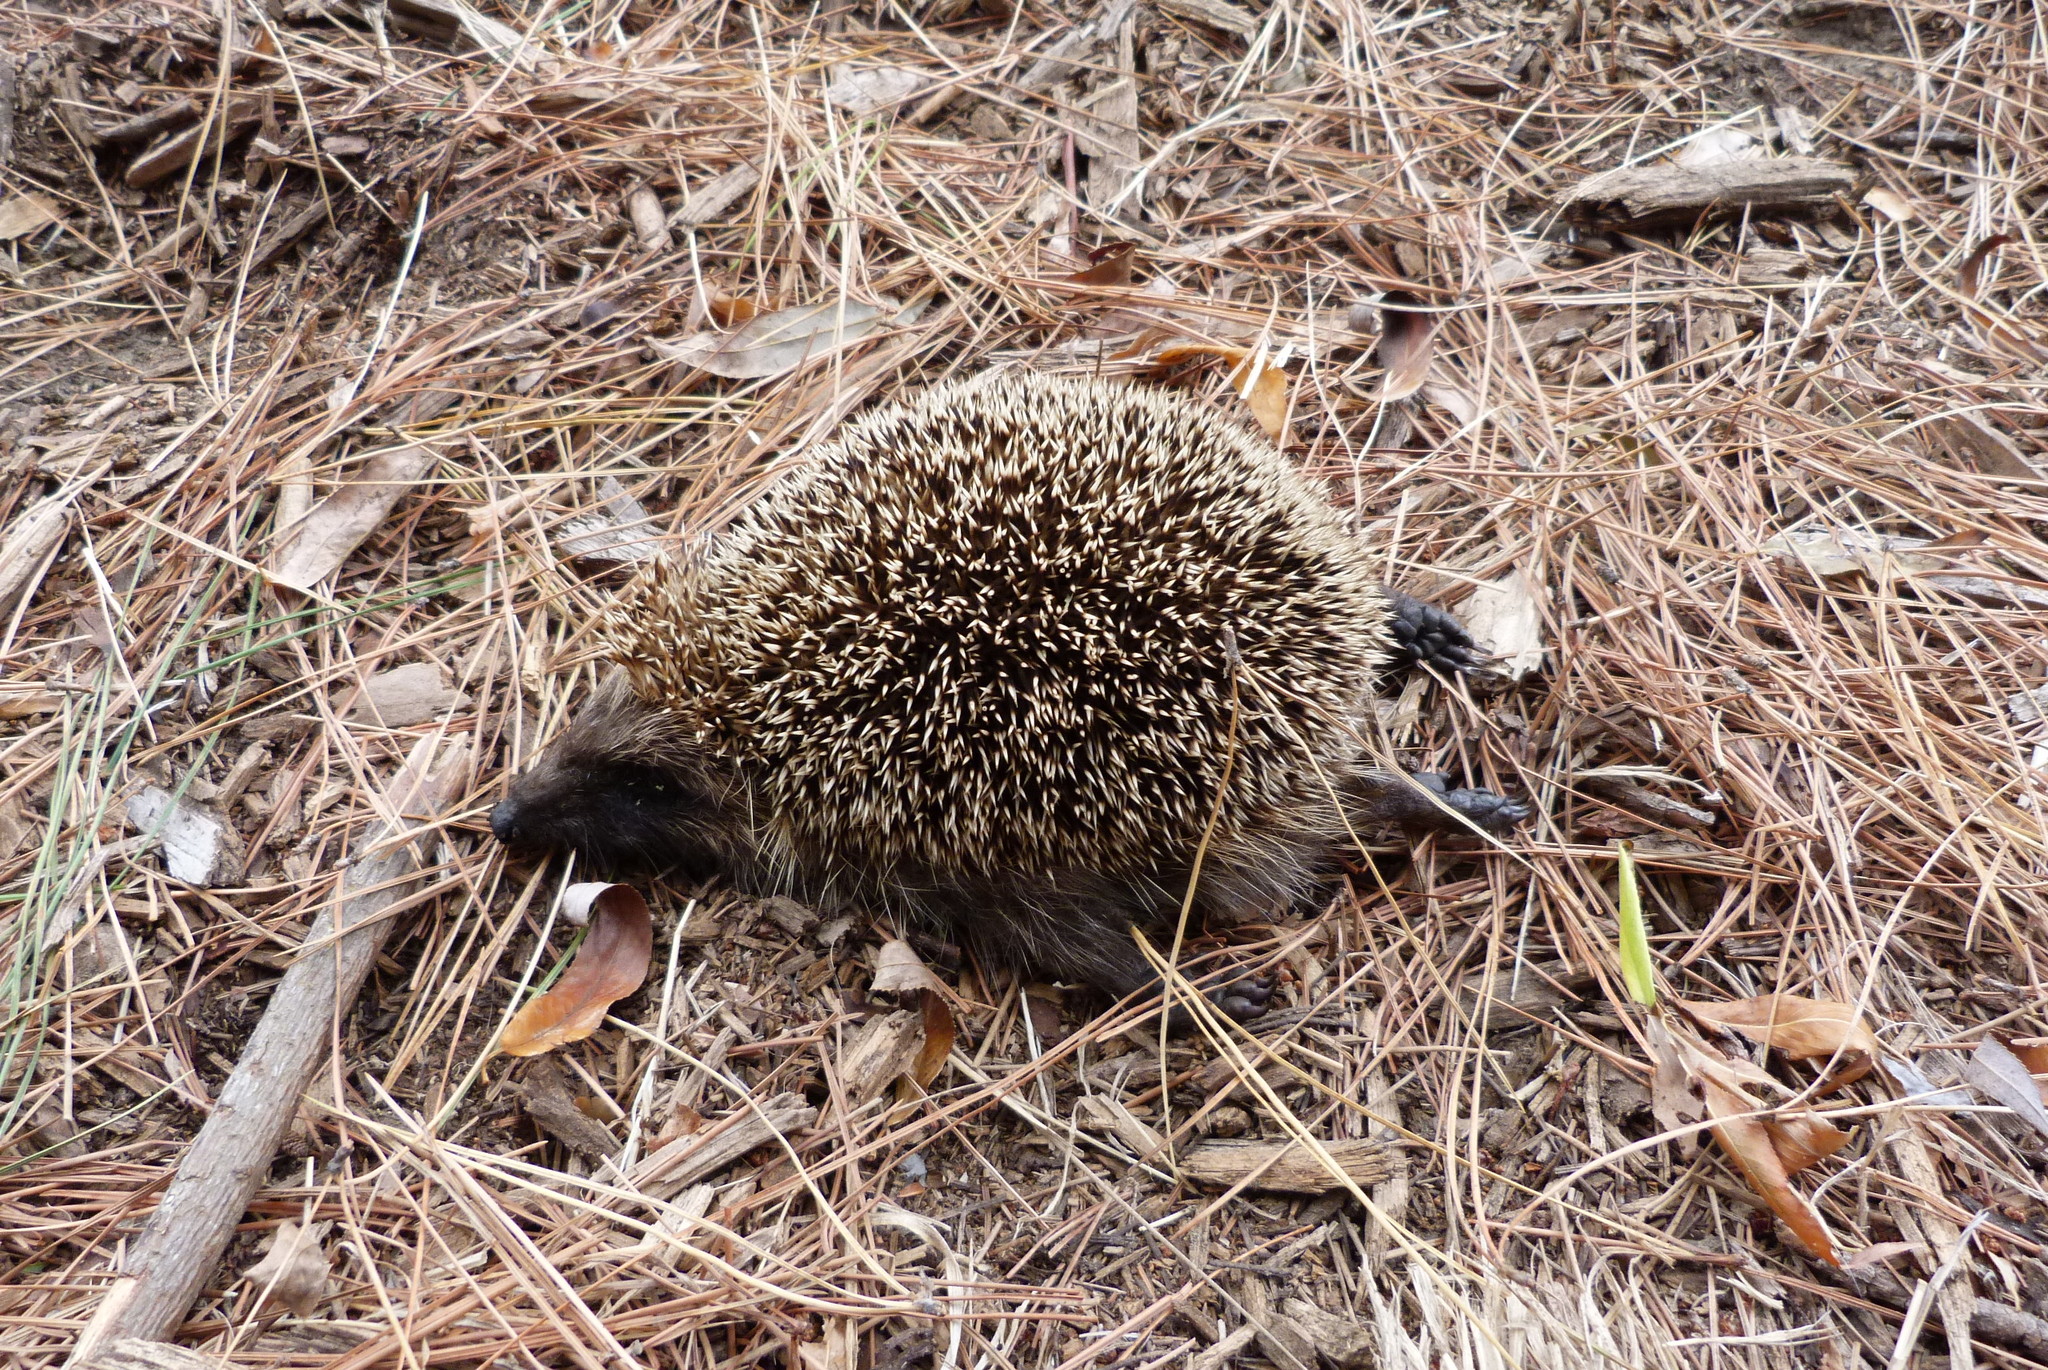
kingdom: Animalia
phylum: Chordata
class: Mammalia
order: Erinaceomorpha
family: Erinaceidae
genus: Erinaceus
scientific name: Erinaceus europaeus
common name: West european hedgehog
